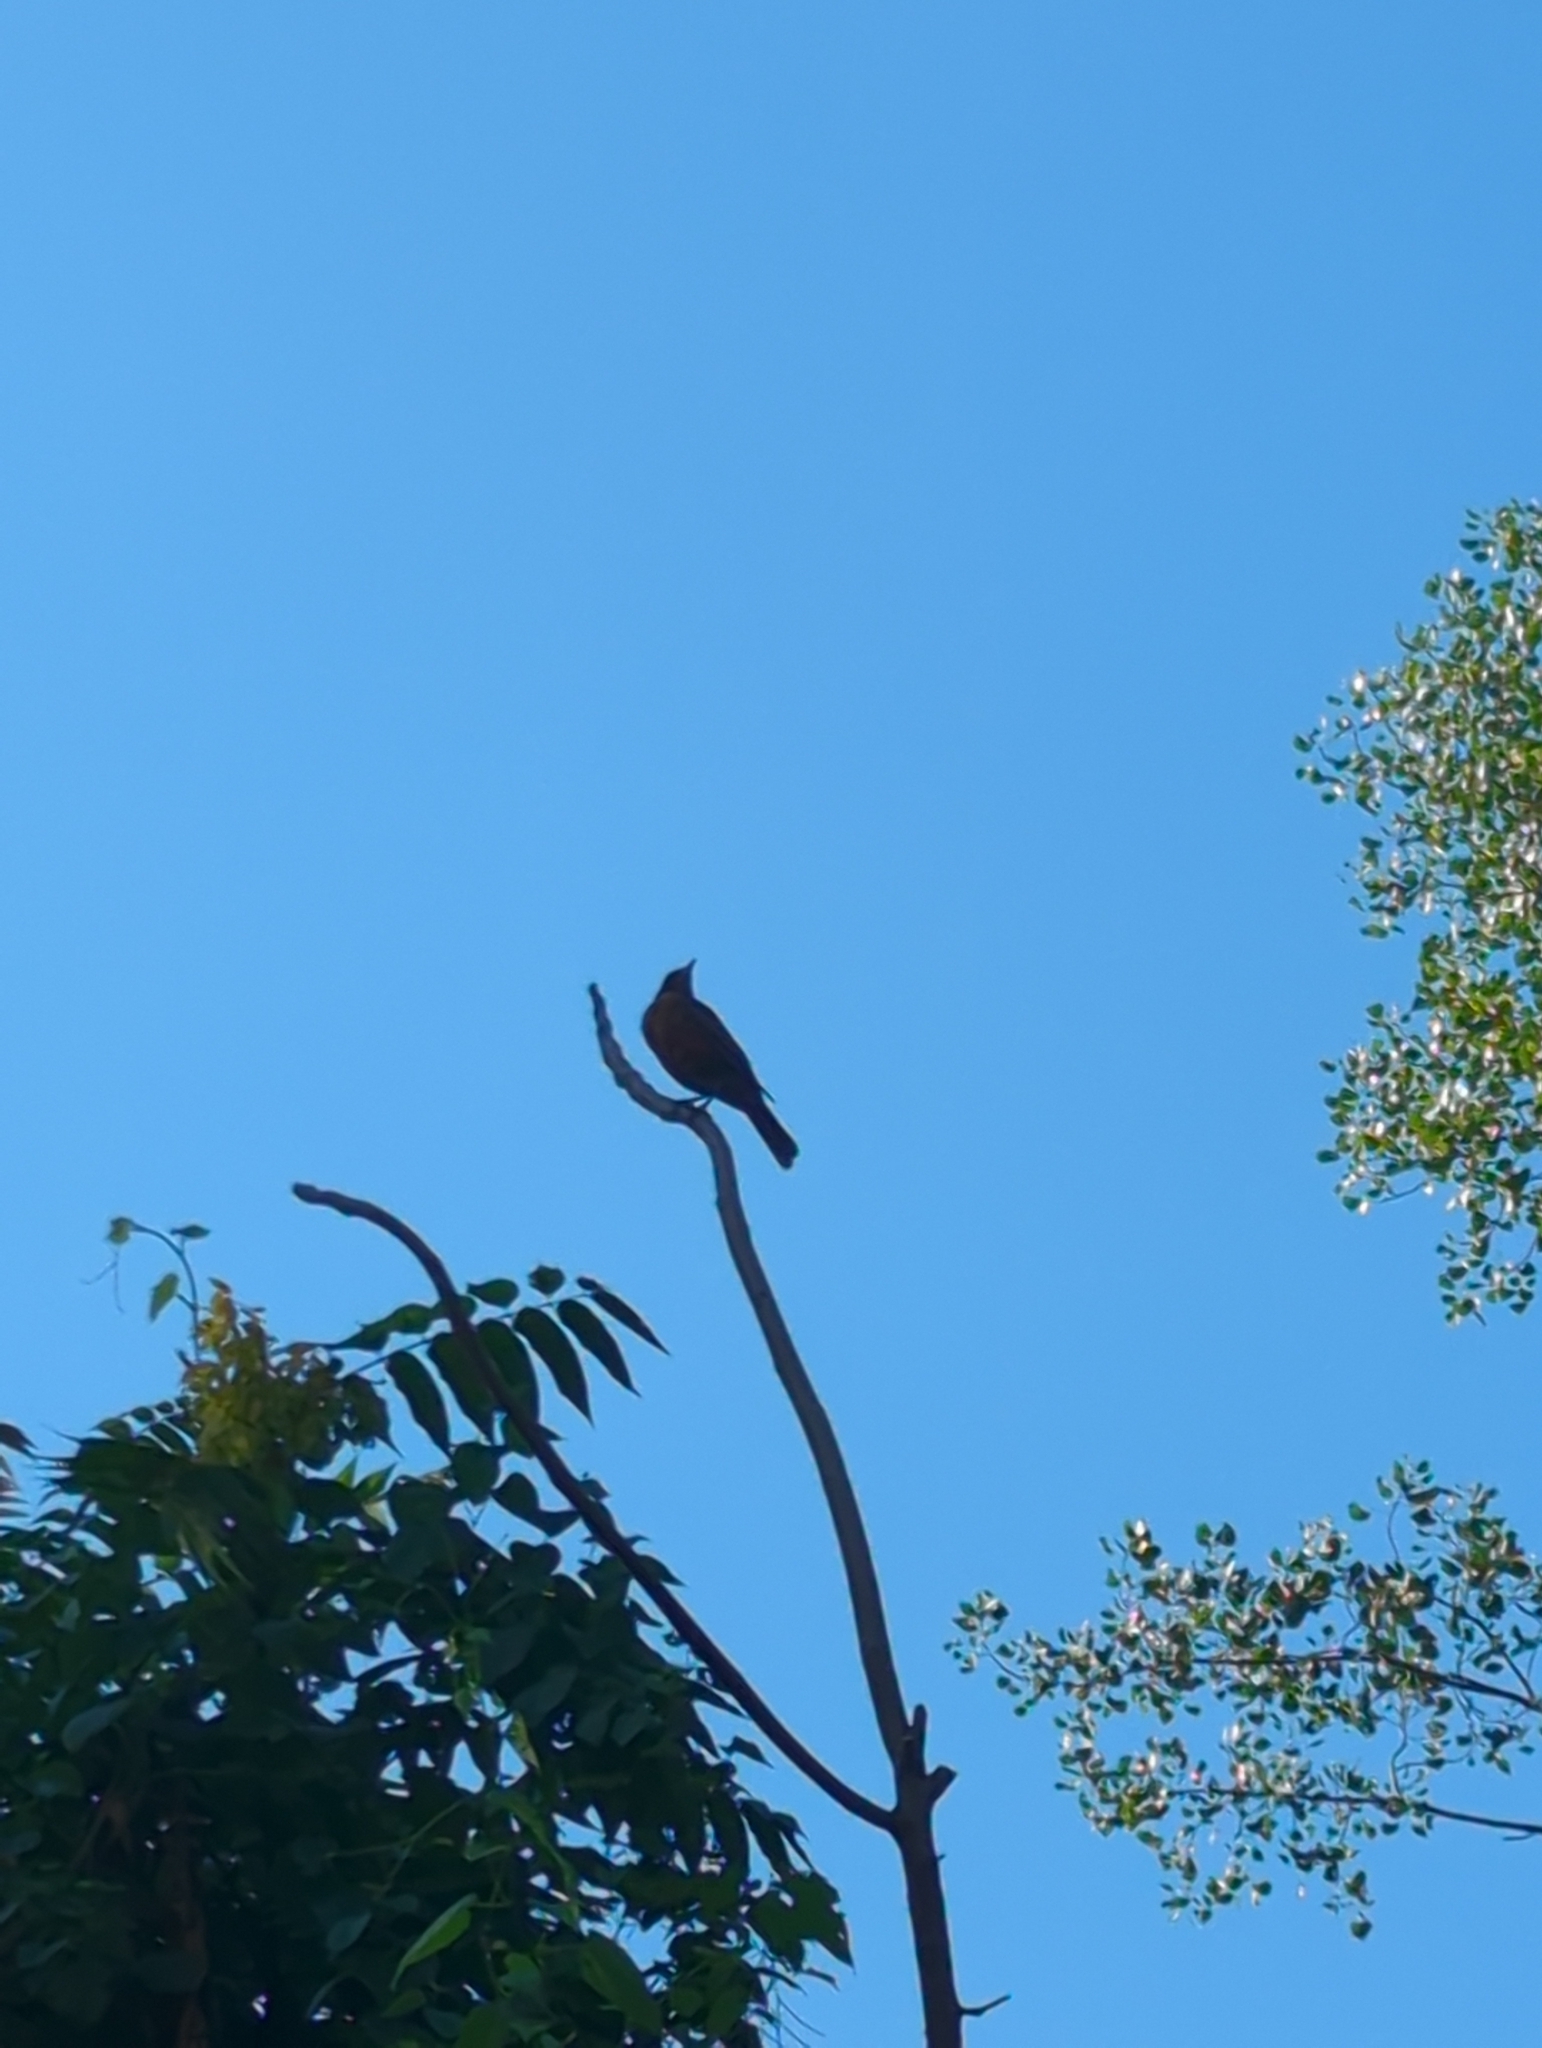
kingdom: Animalia
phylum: Chordata
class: Aves
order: Passeriformes
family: Turdidae
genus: Turdus
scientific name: Turdus migratorius
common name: American robin
